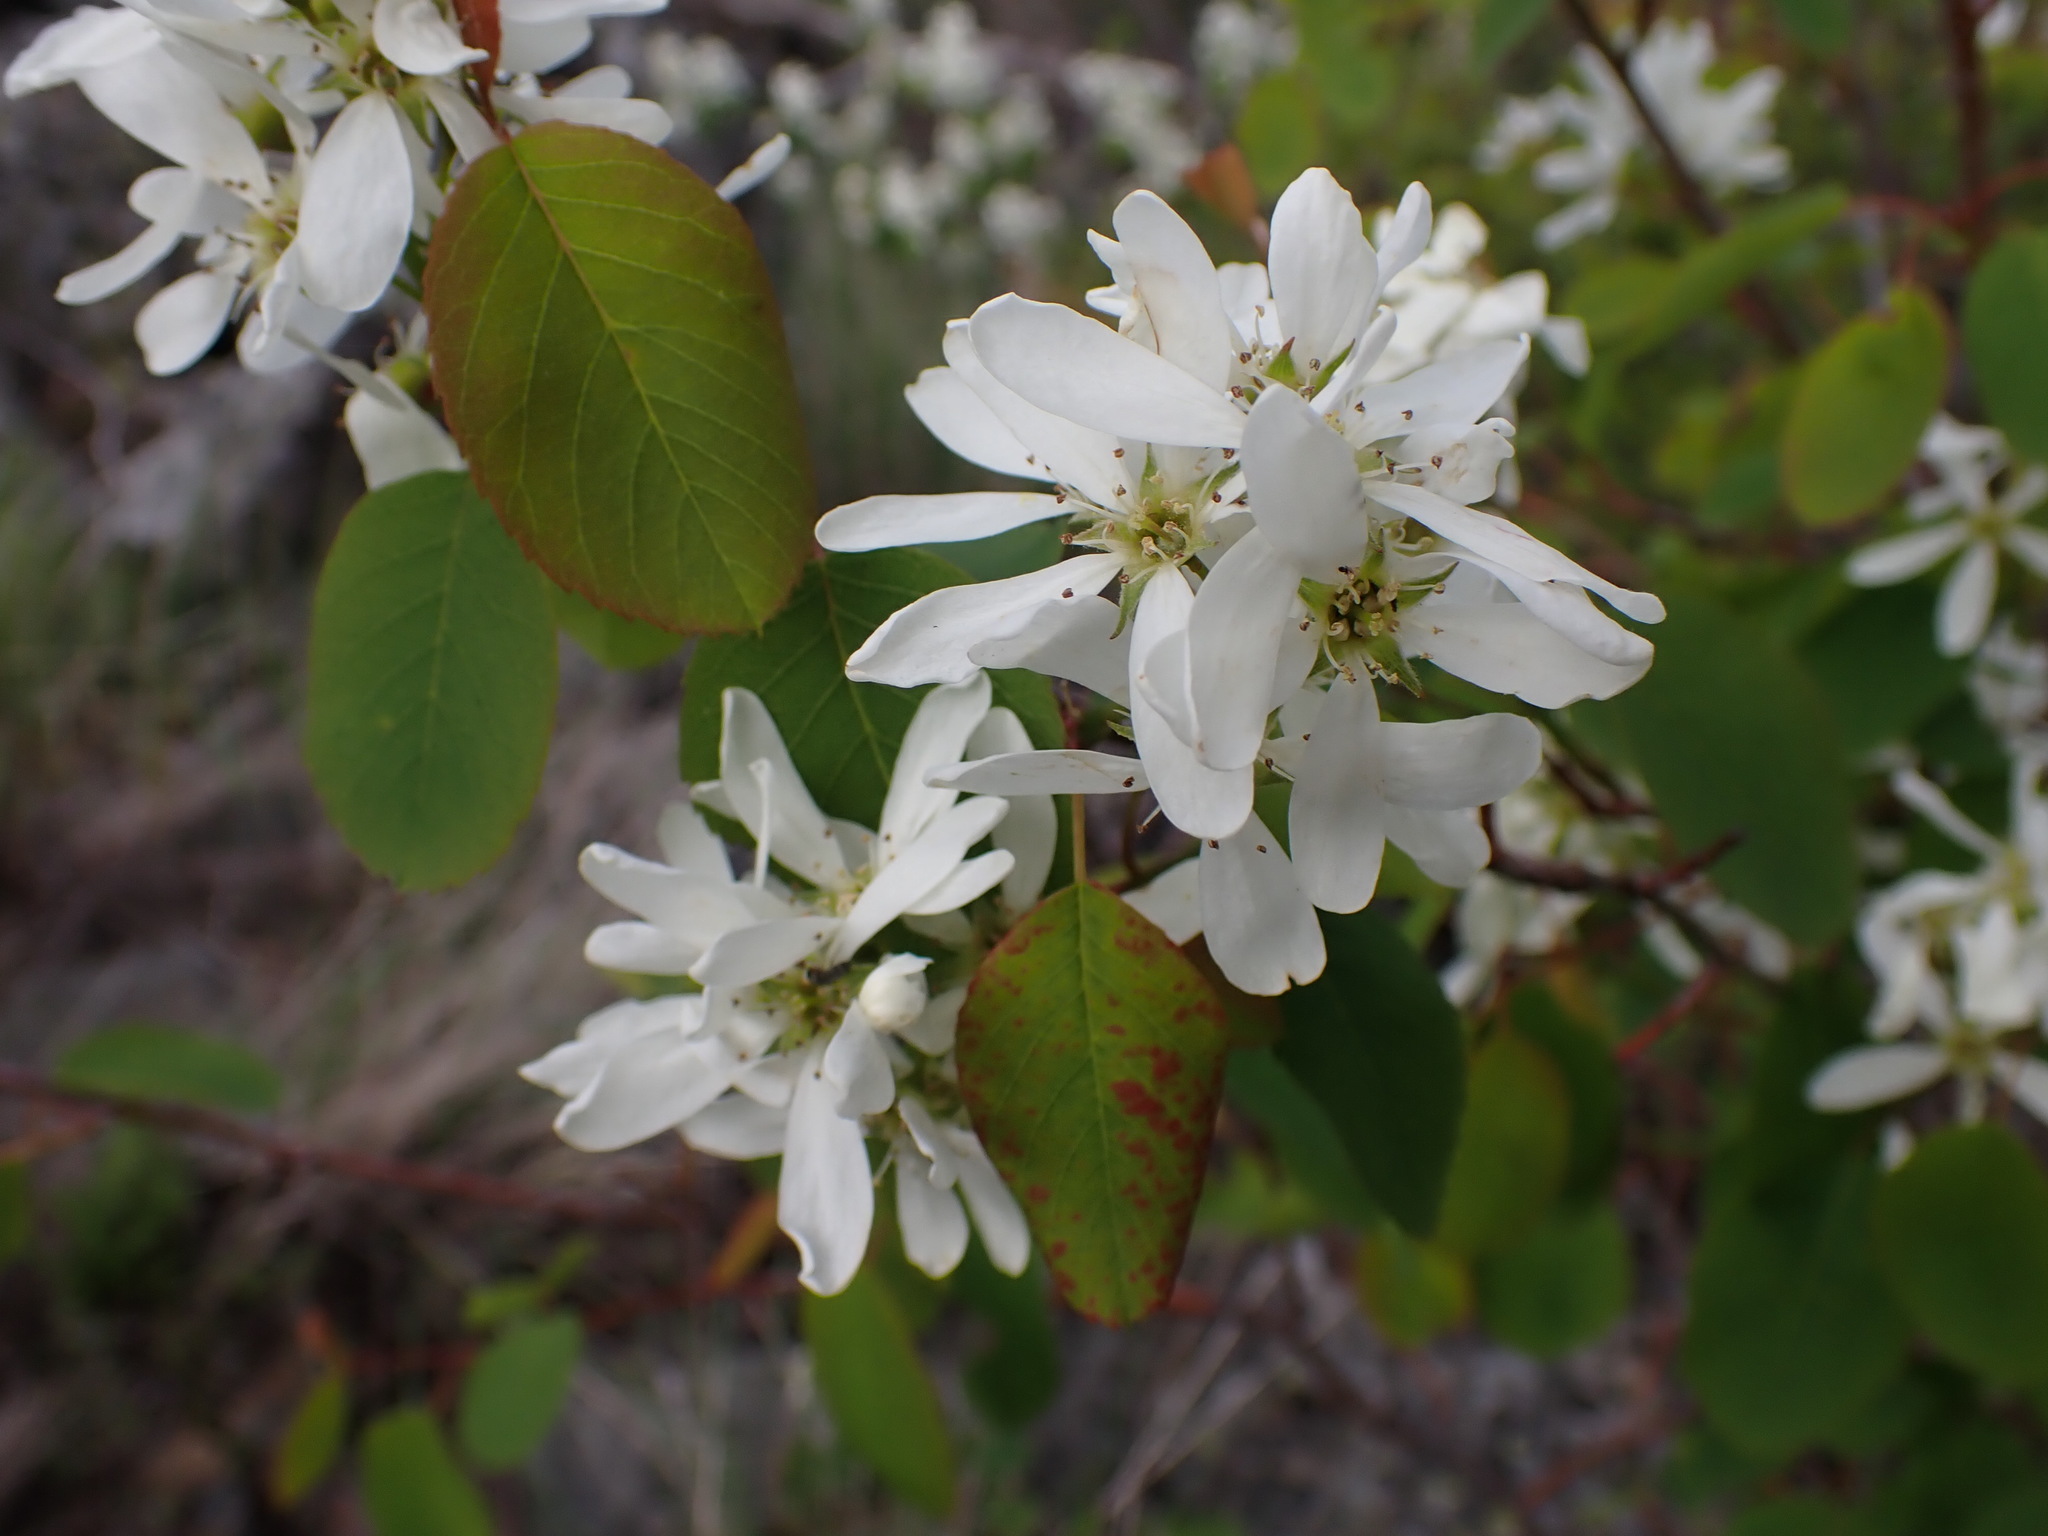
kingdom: Plantae
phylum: Tracheophyta
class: Magnoliopsida
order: Rosales
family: Rosaceae
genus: Amelanchier
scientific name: Amelanchier alnifolia
